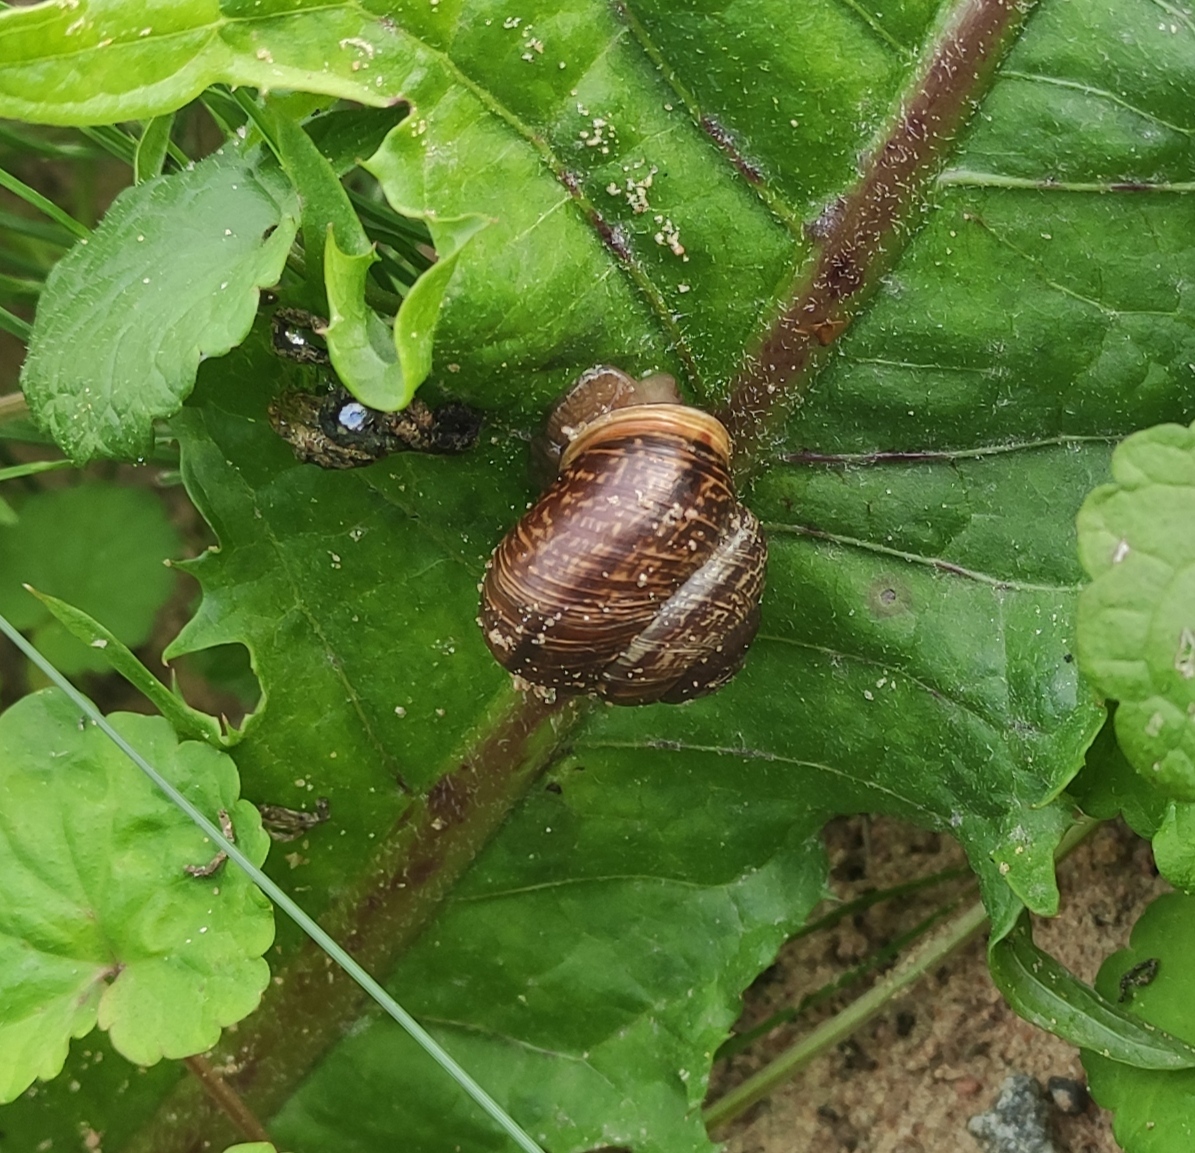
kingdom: Animalia
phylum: Mollusca
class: Gastropoda
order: Stylommatophora
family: Helicidae
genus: Arianta
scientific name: Arianta arbustorum
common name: Copse snail
